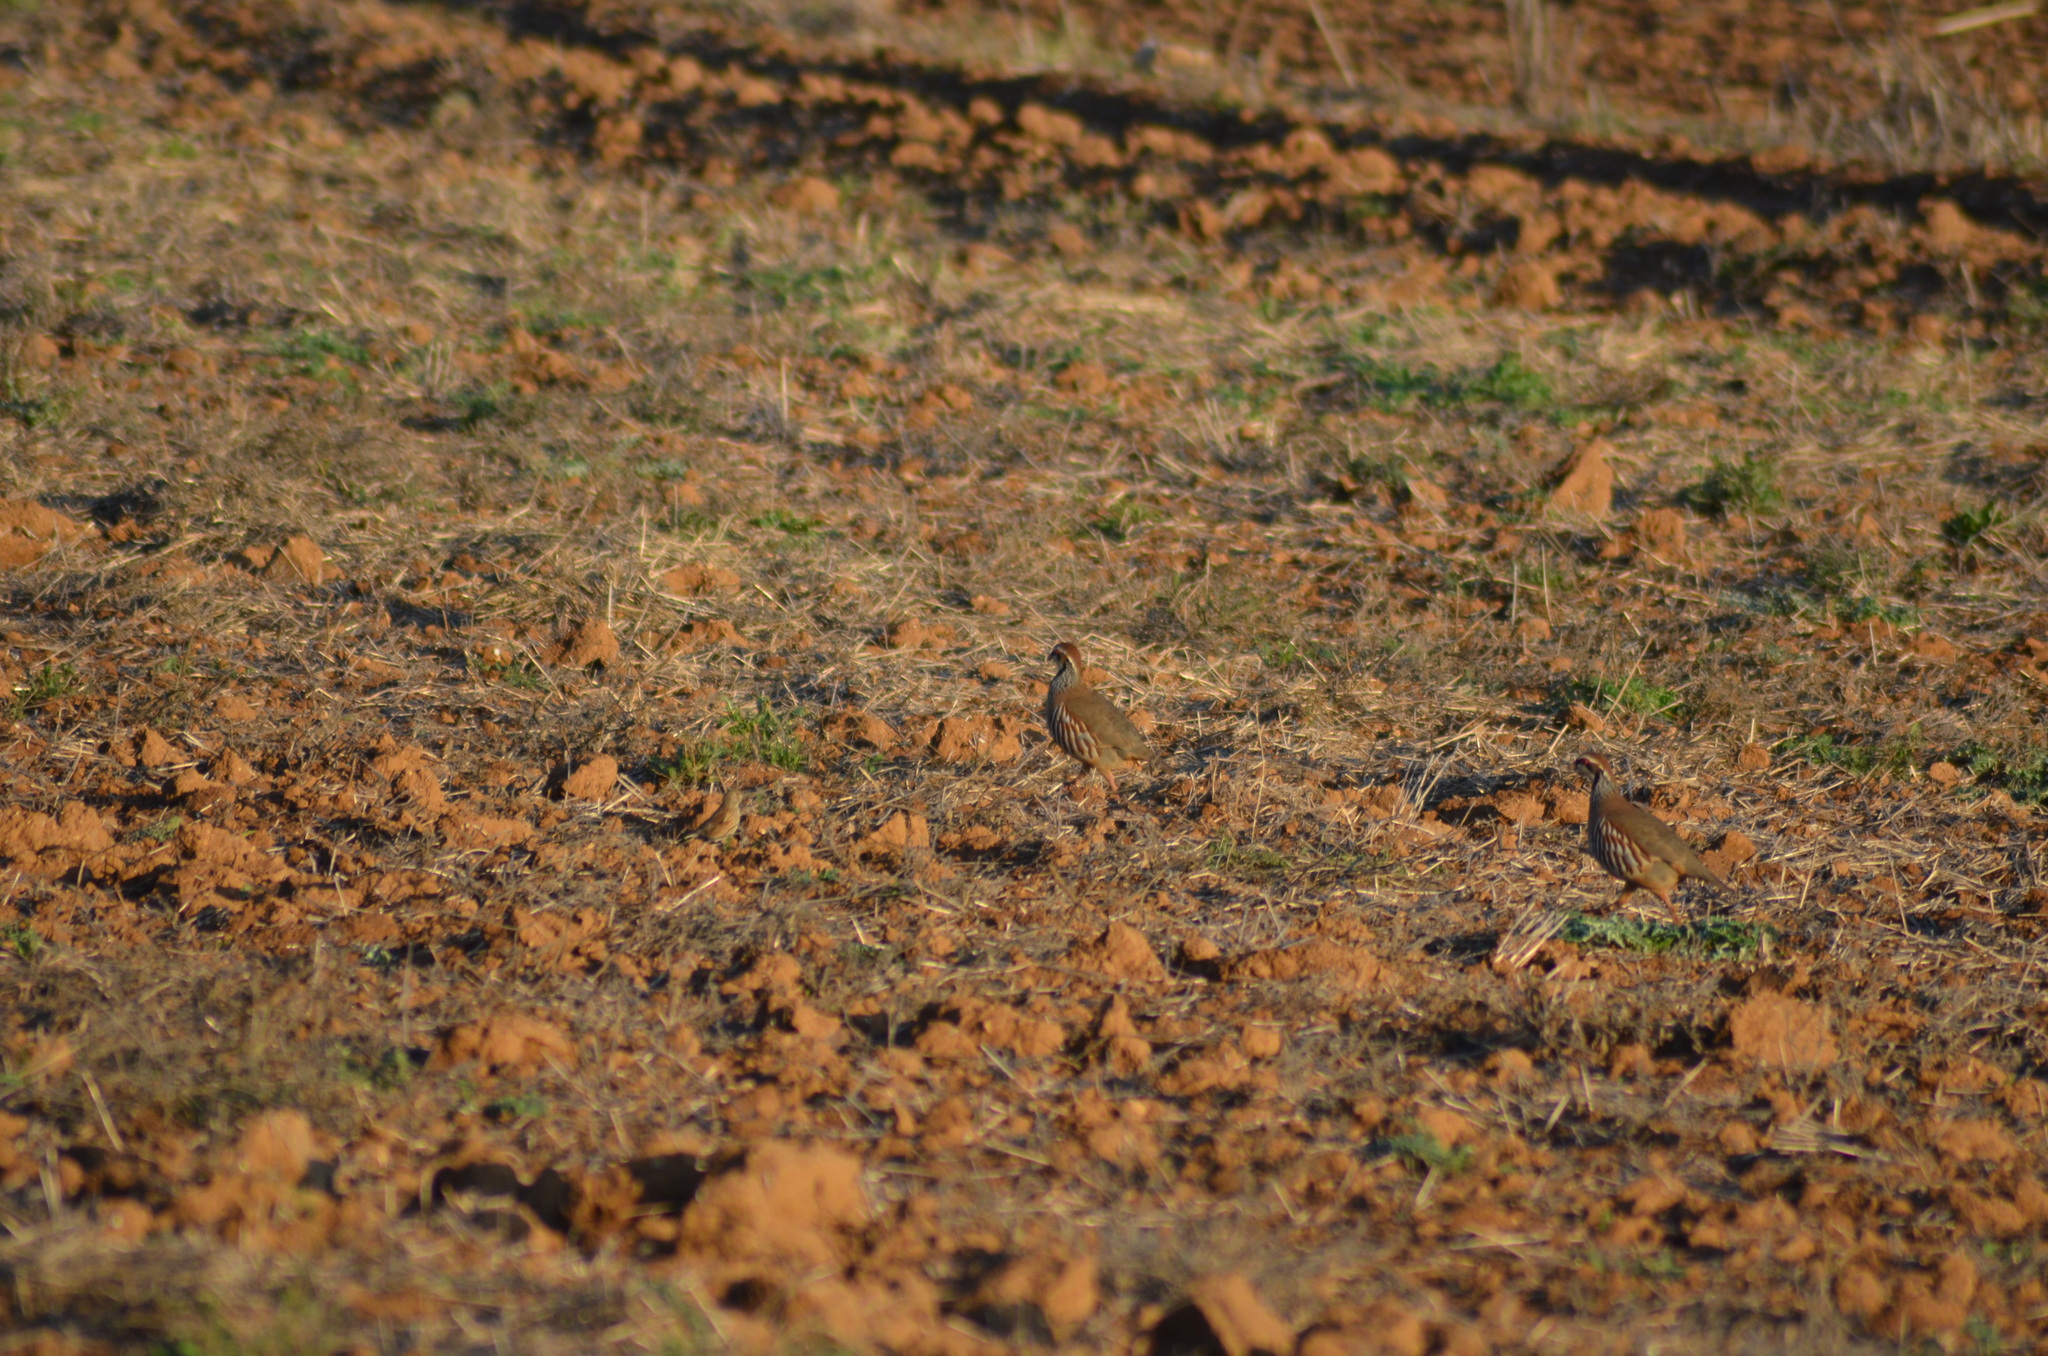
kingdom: Animalia
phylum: Chordata
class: Aves
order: Galliformes
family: Phasianidae
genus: Alectoris
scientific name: Alectoris rufa
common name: Red-legged partridge
